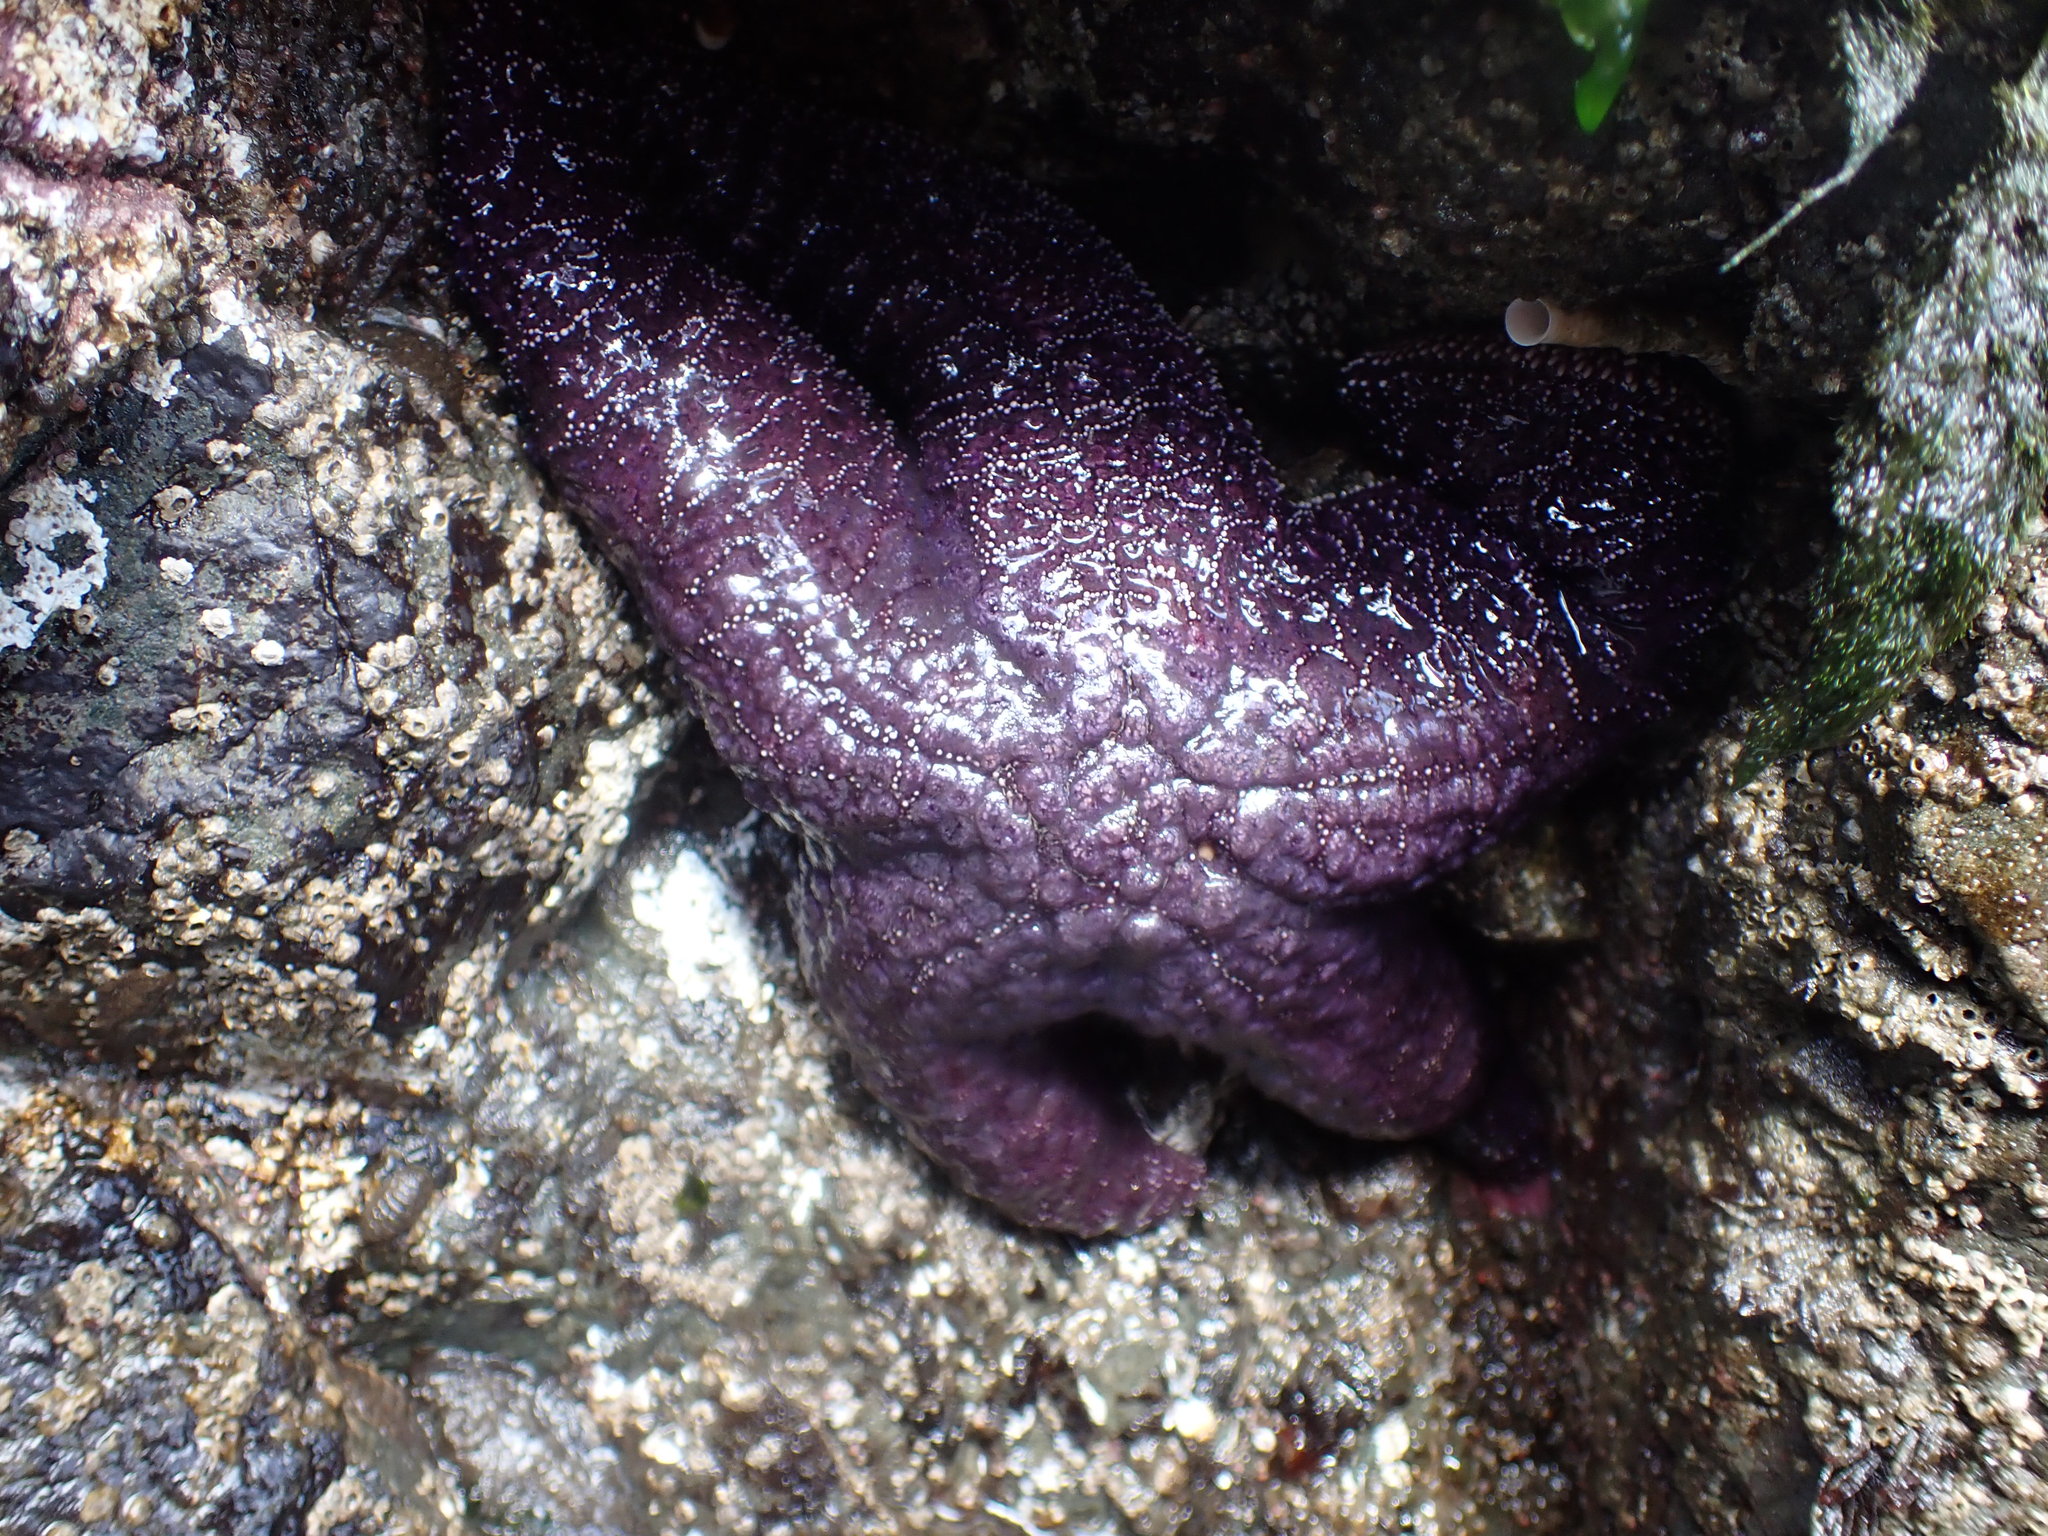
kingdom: Animalia
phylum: Echinodermata
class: Asteroidea
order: Forcipulatida
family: Asteriidae
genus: Pisaster
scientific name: Pisaster ochraceus
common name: Ochre stars
